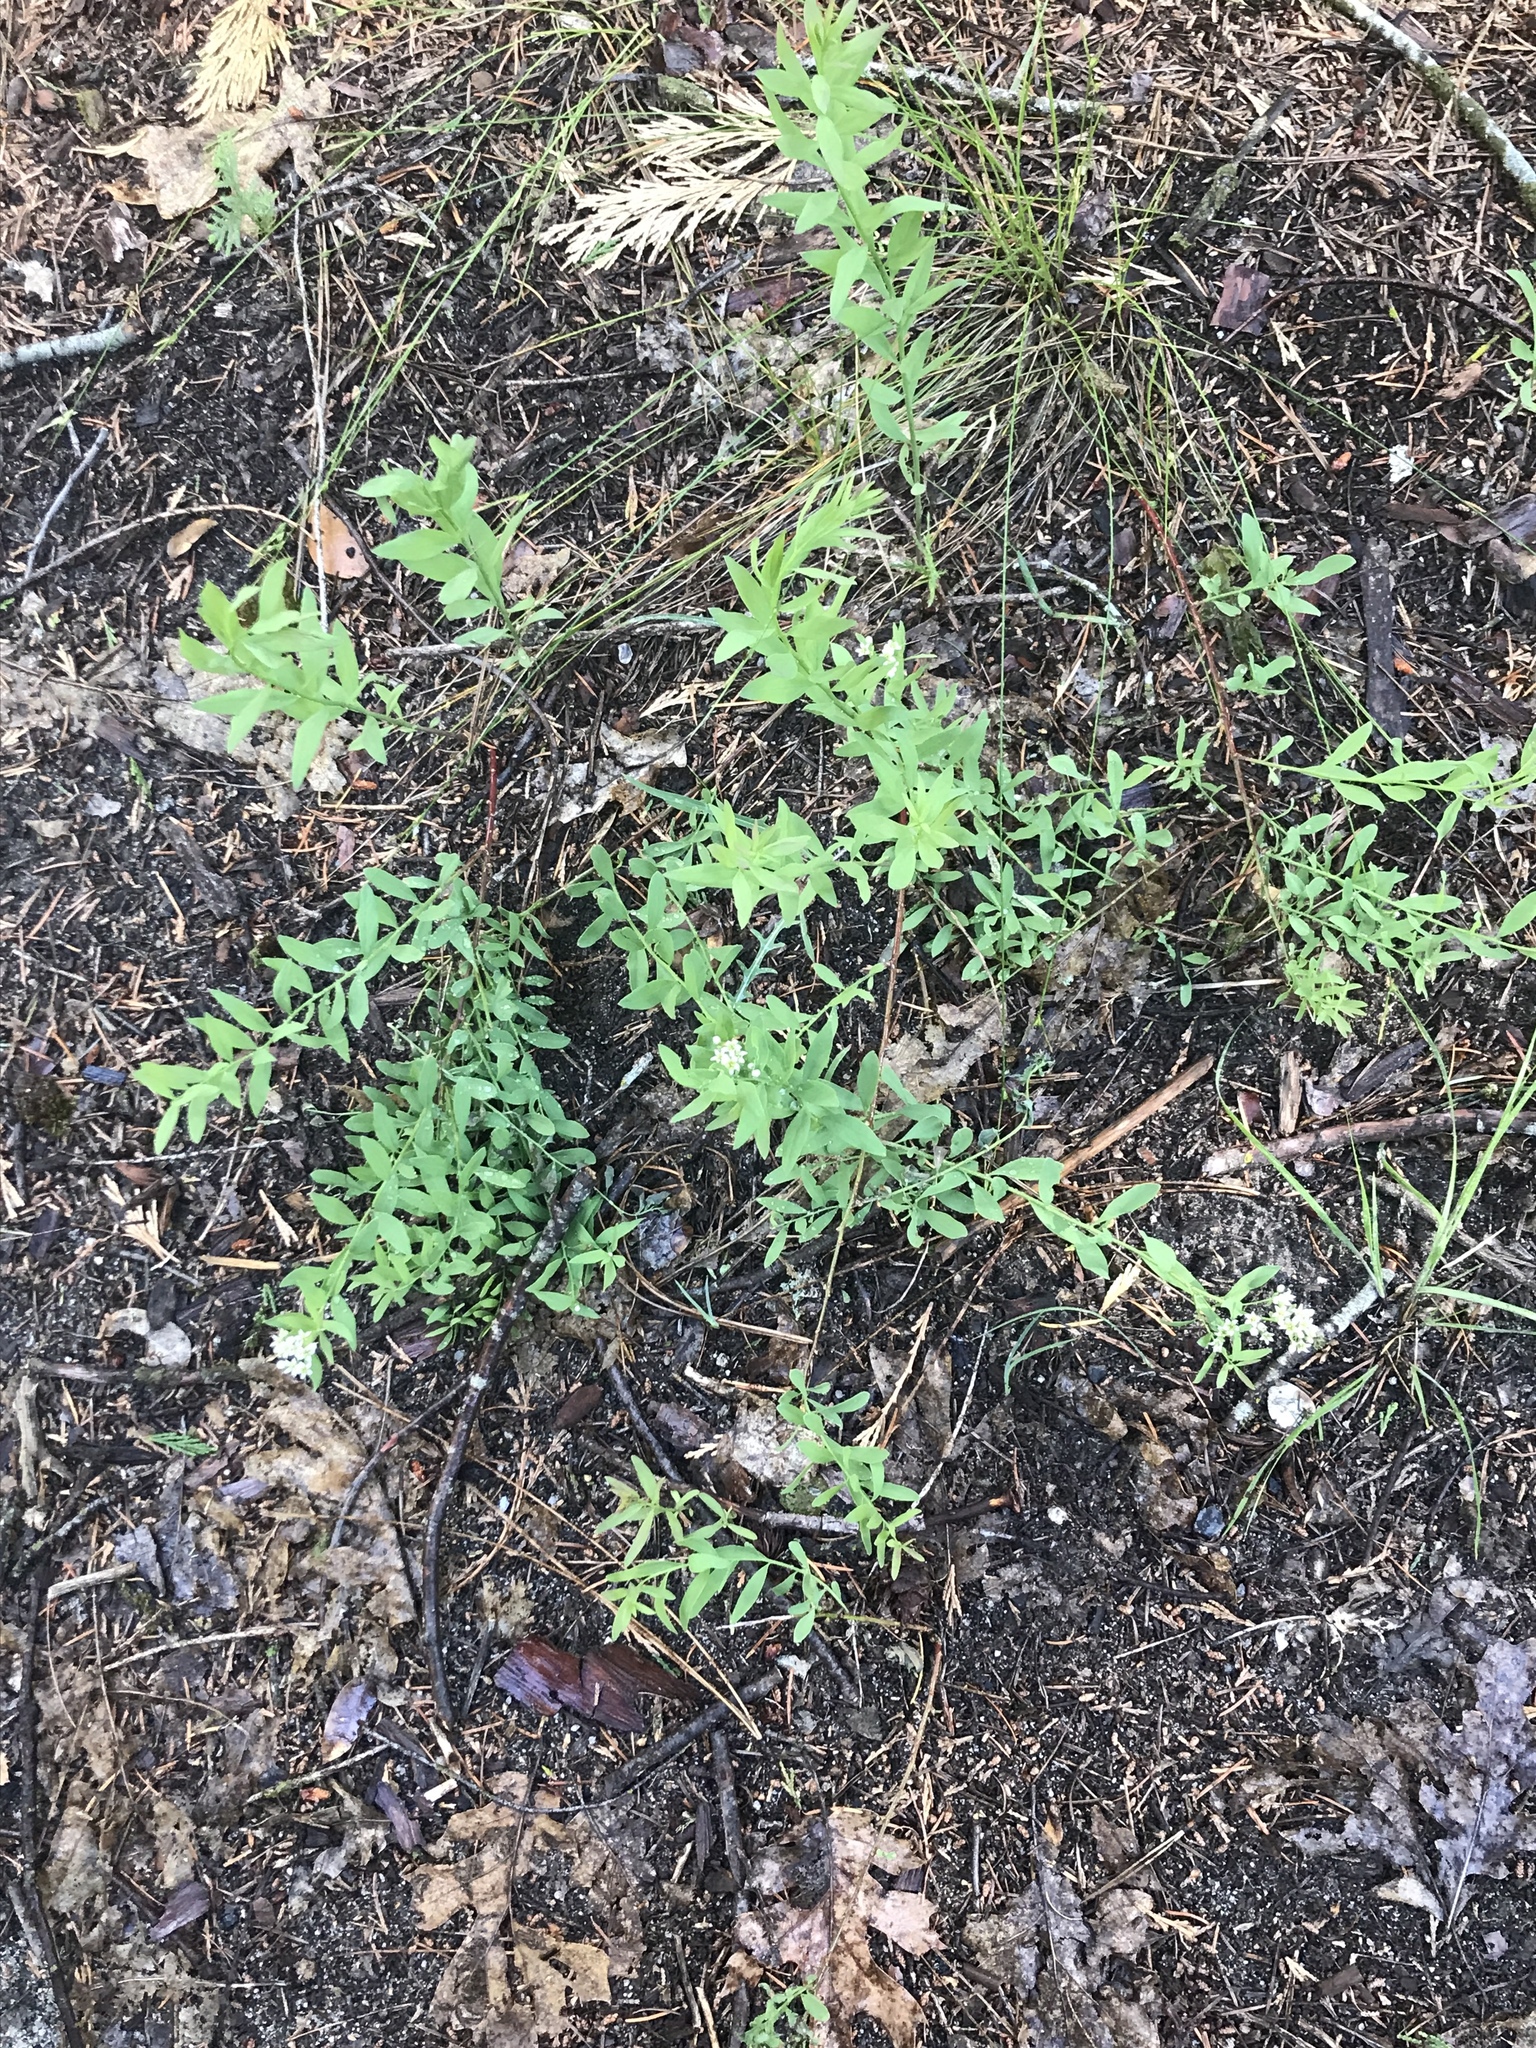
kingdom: Plantae
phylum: Tracheophyta
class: Magnoliopsida
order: Santalales
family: Comandraceae
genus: Comandra
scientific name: Comandra umbellata
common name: Bastard toadflax
